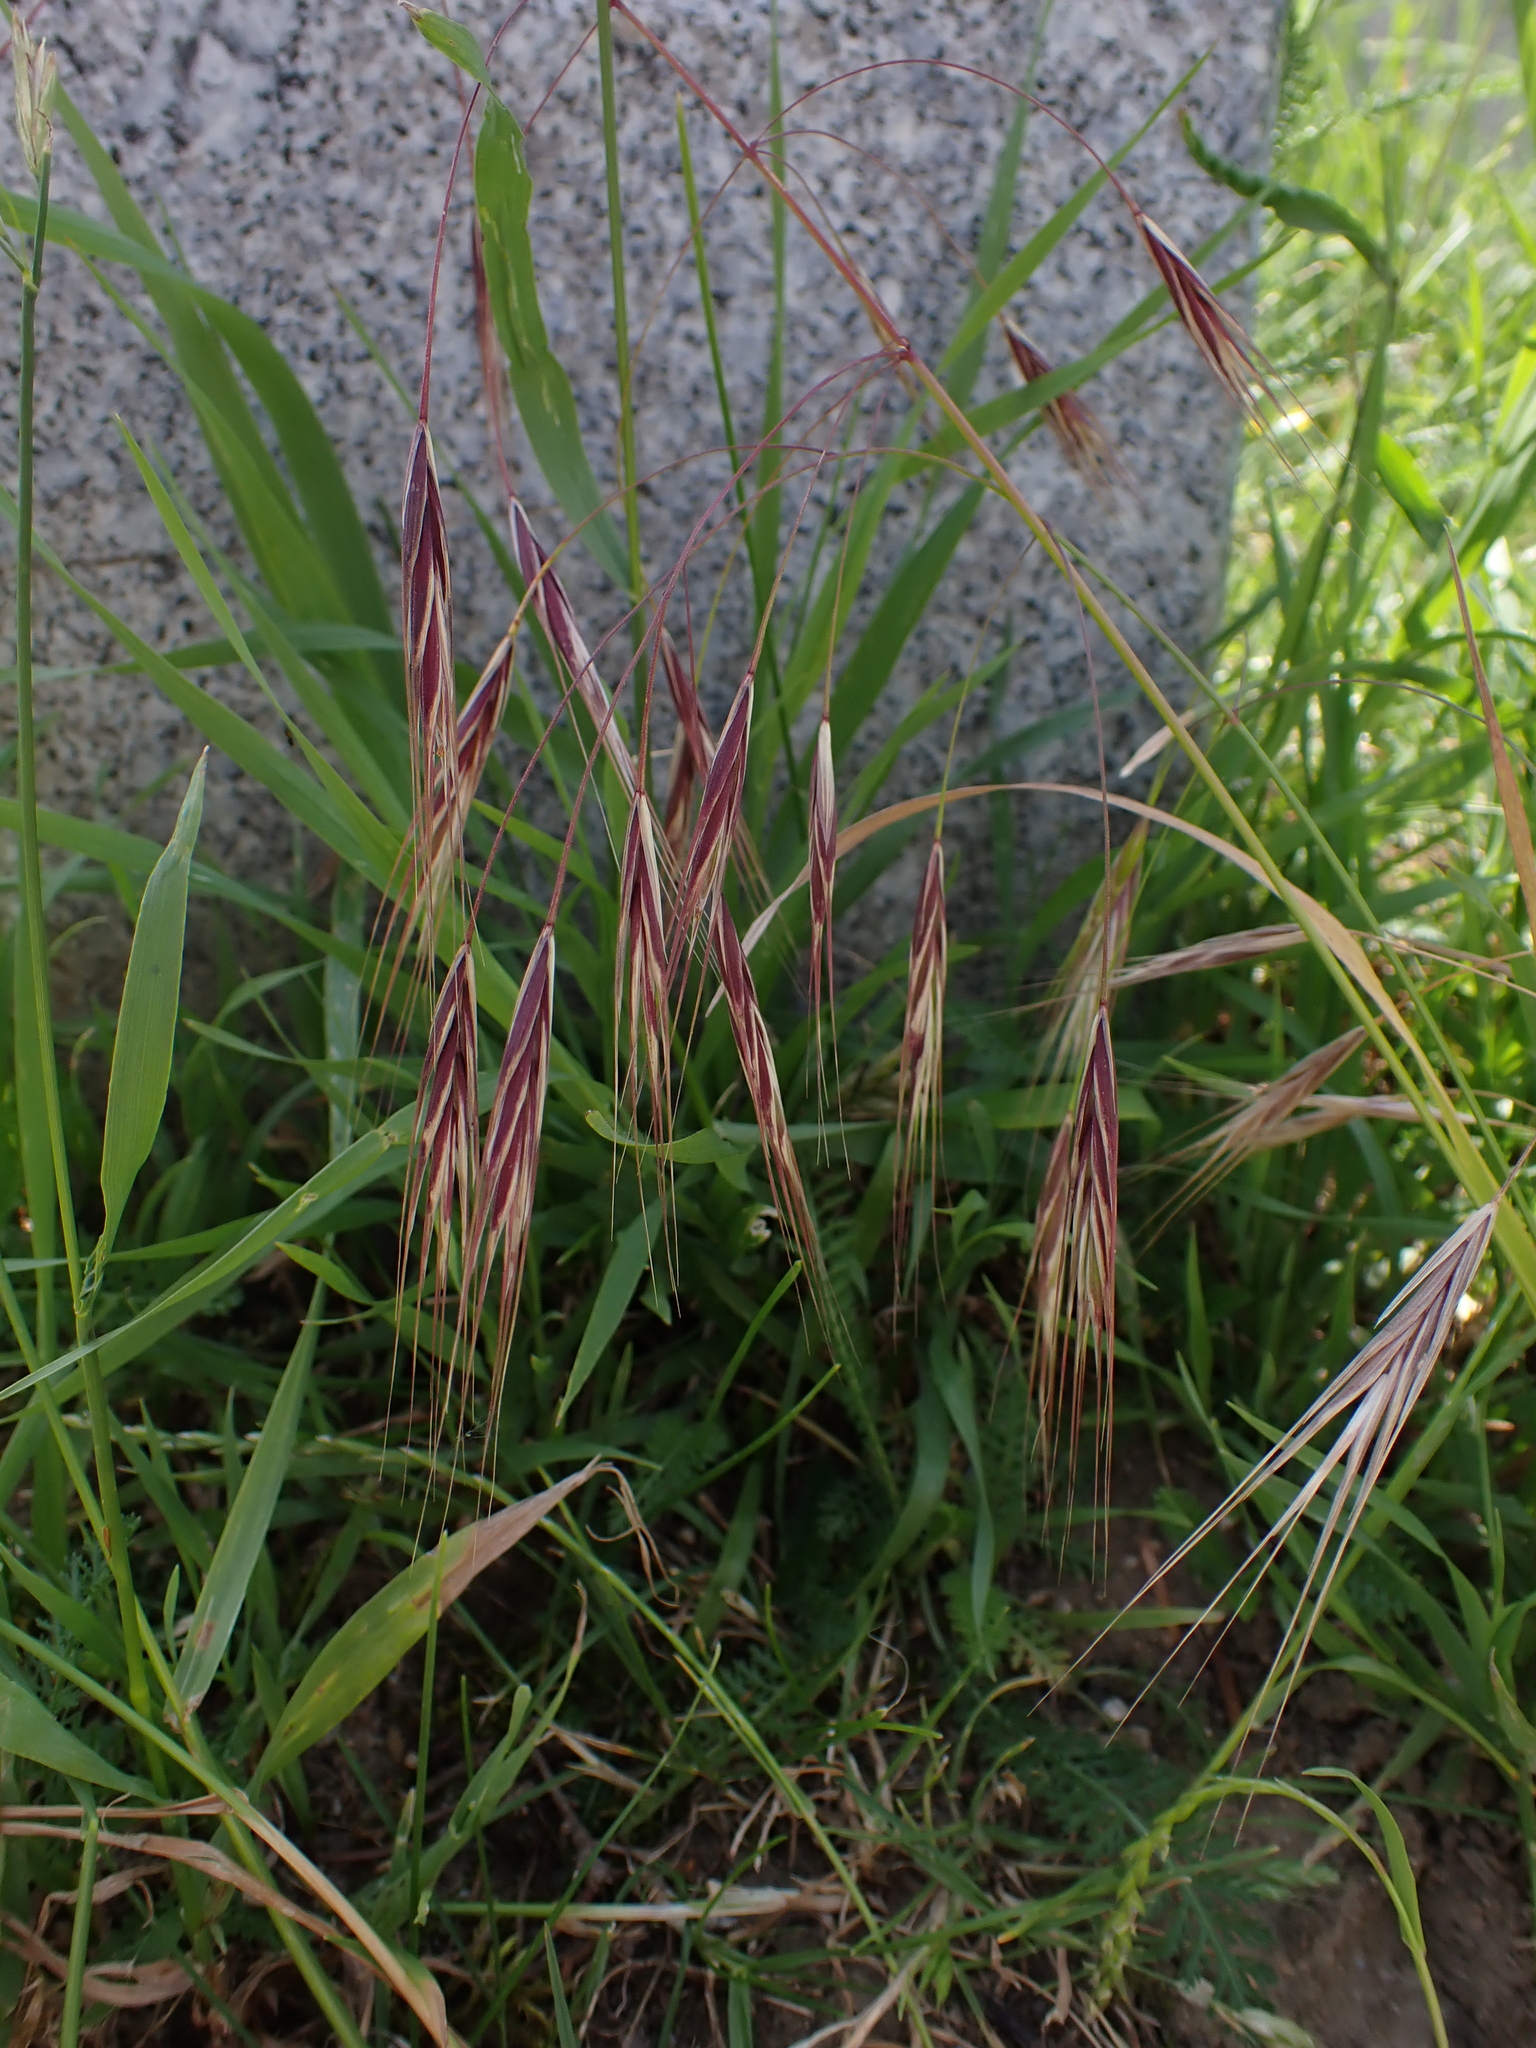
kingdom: Plantae
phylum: Tracheophyta
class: Liliopsida
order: Poales
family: Poaceae
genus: Bromus
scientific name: Bromus sterilis
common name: Poverty brome
